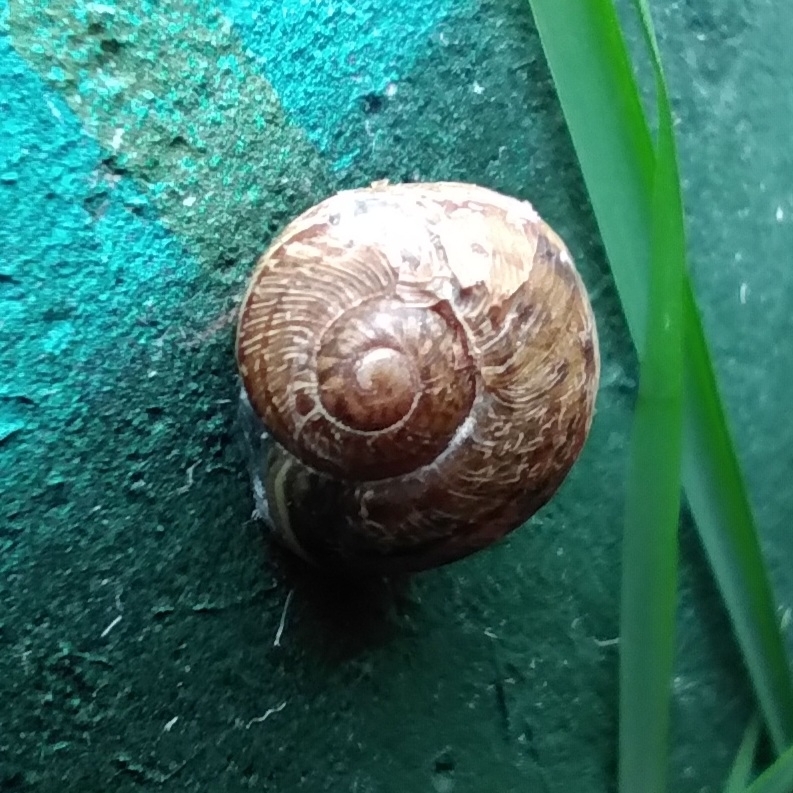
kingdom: Animalia
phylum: Mollusca
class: Gastropoda
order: Stylommatophora
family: Helicidae
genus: Cornu
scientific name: Cornu aspersum
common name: Brown garden snail
